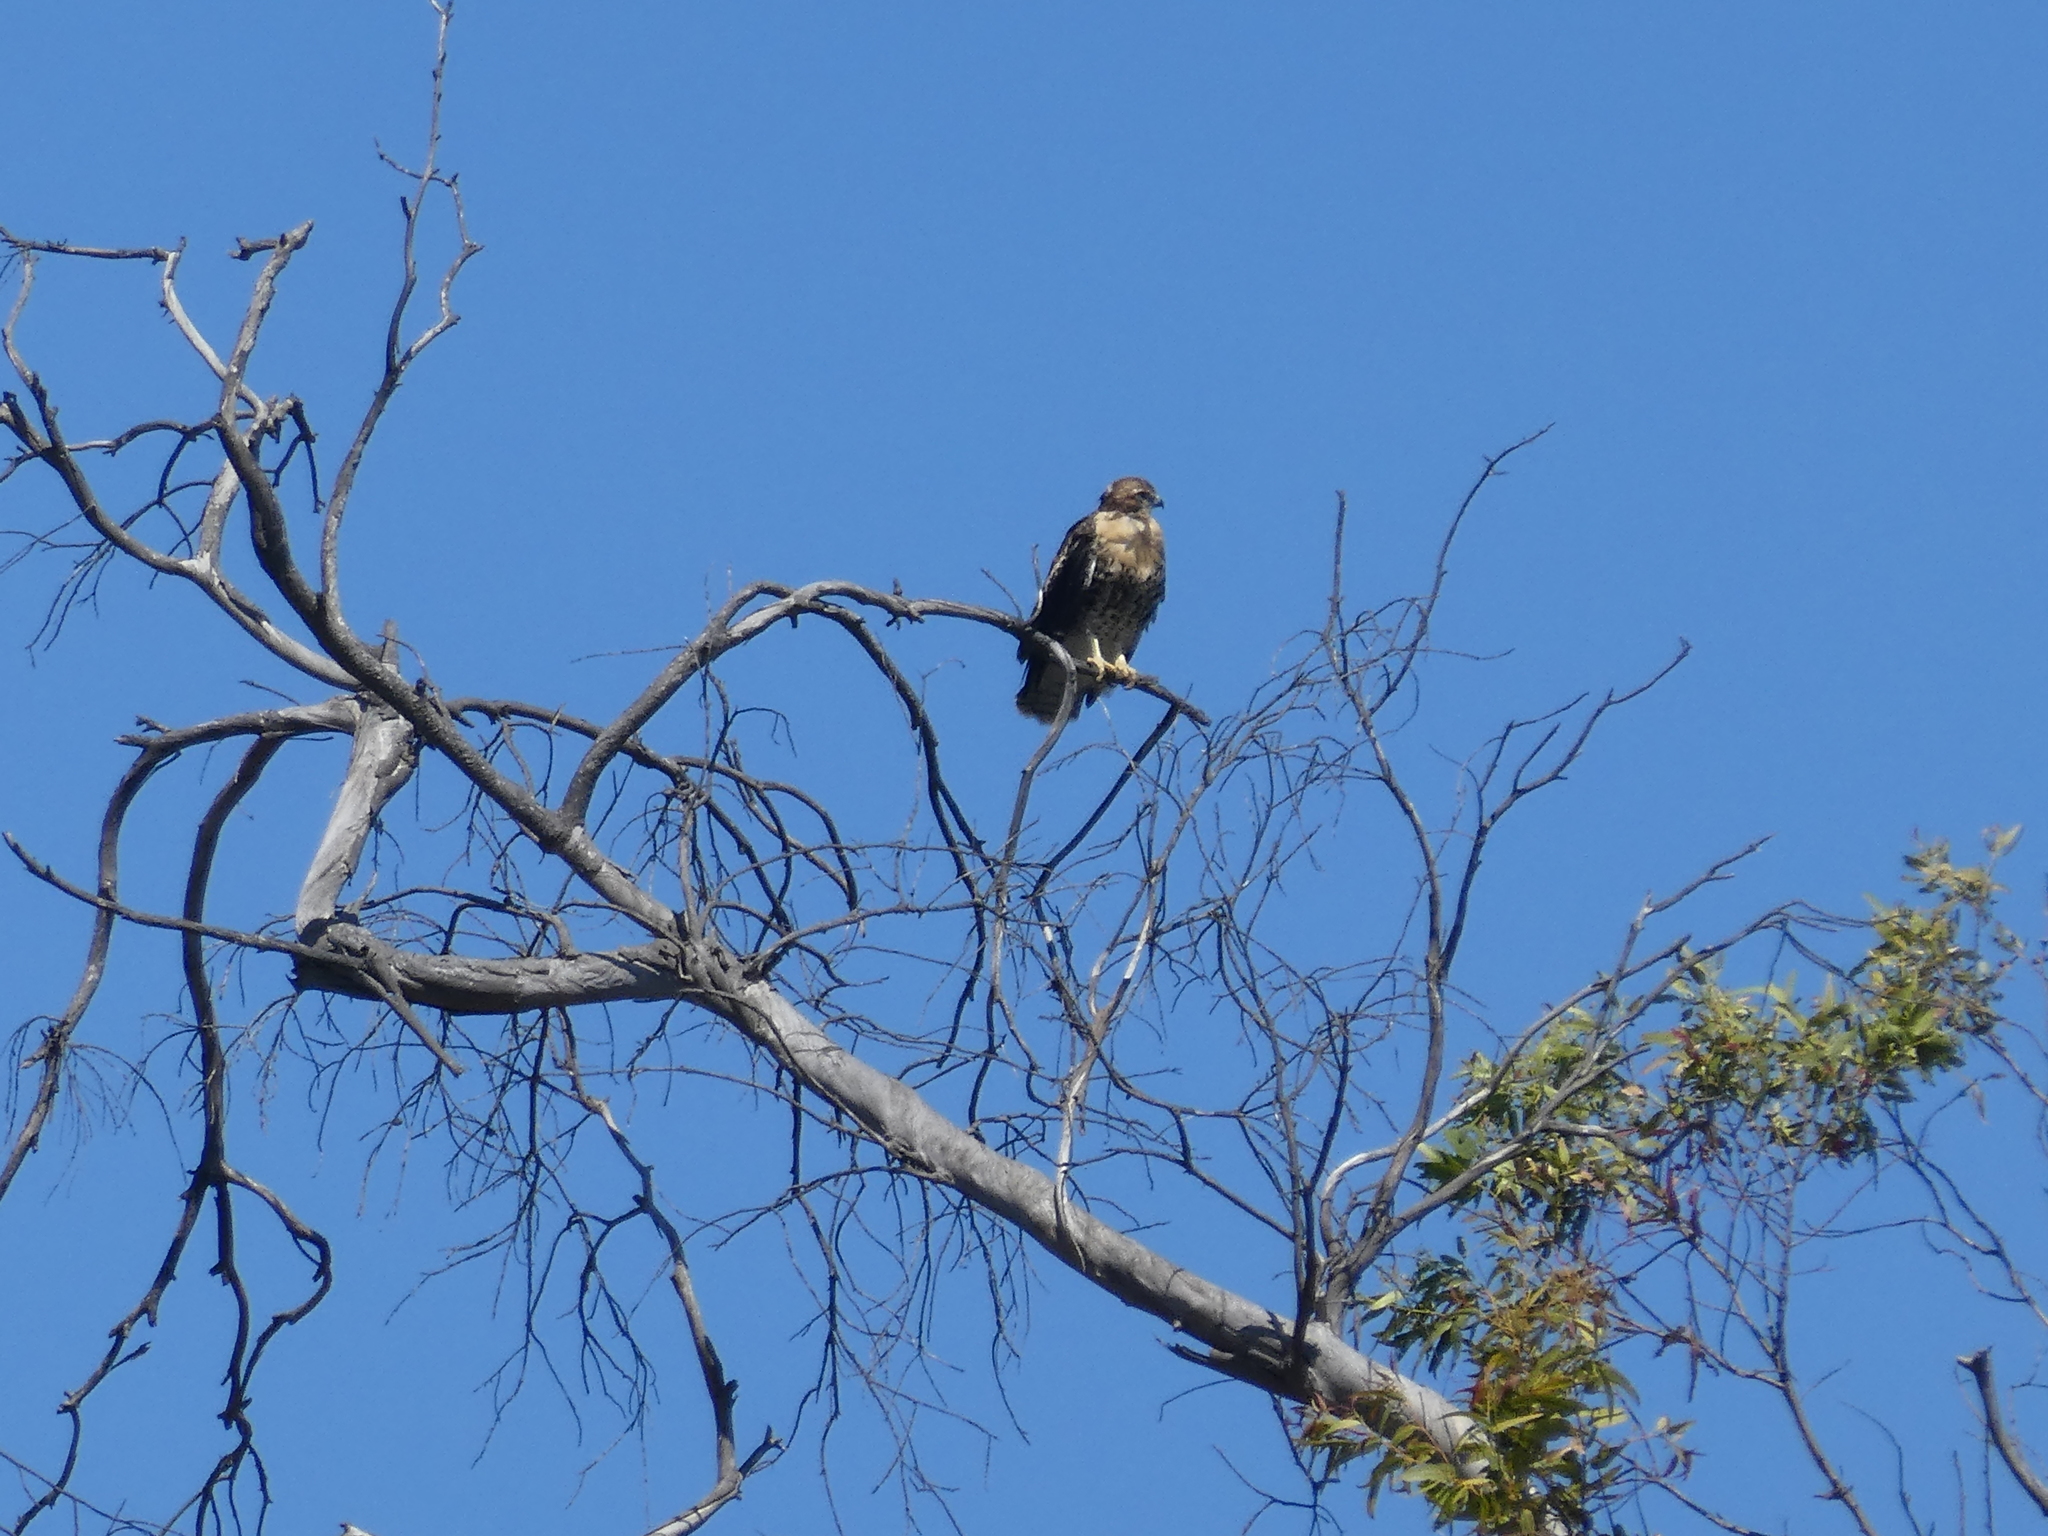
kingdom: Animalia
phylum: Chordata
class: Aves
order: Accipitriformes
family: Accipitridae
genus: Buteo
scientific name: Buteo jamaicensis
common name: Red-tailed hawk
